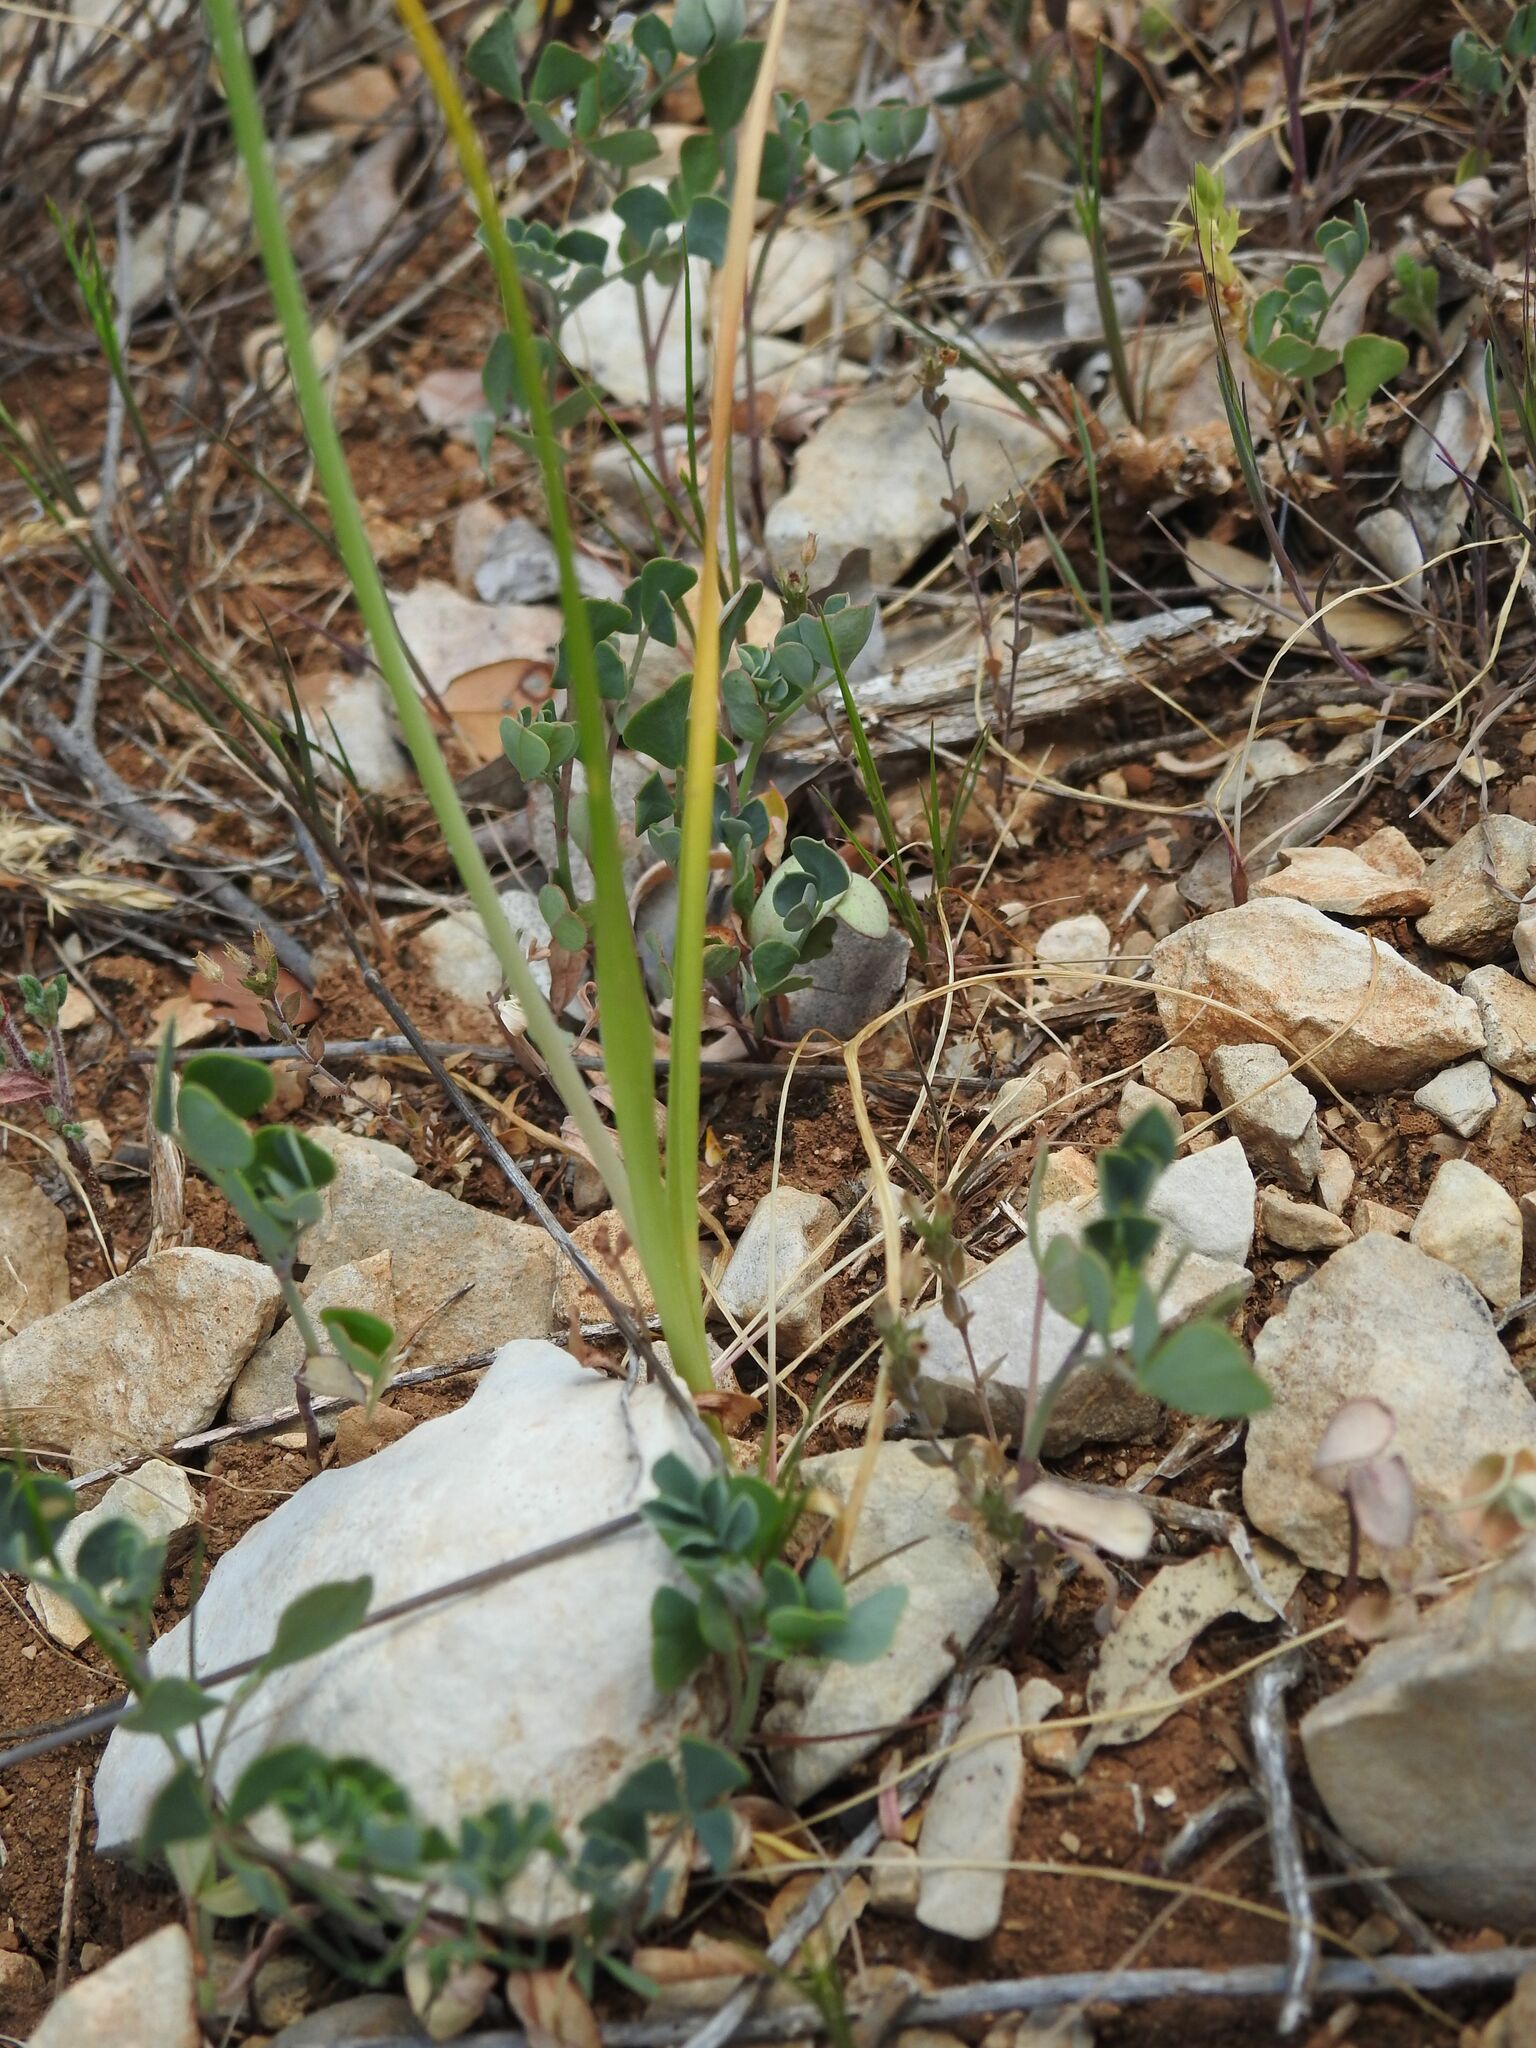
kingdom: Plantae
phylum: Tracheophyta
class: Liliopsida
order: Asparagales
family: Amaryllidaceae
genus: Allium
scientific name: Allium roseum
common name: Rosy garlic
